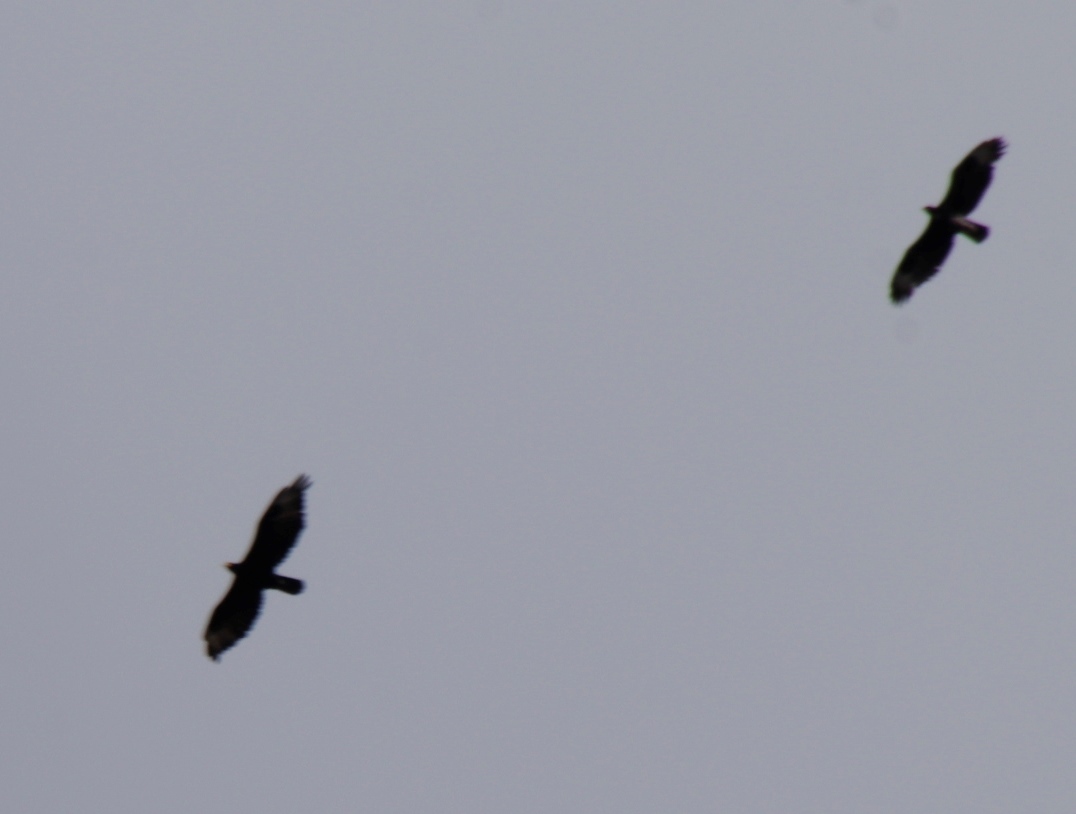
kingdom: Animalia
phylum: Chordata
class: Aves
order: Accipitriformes
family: Accipitridae
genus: Aquila
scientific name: Aquila verreauxii
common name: Verreaux's eagle
